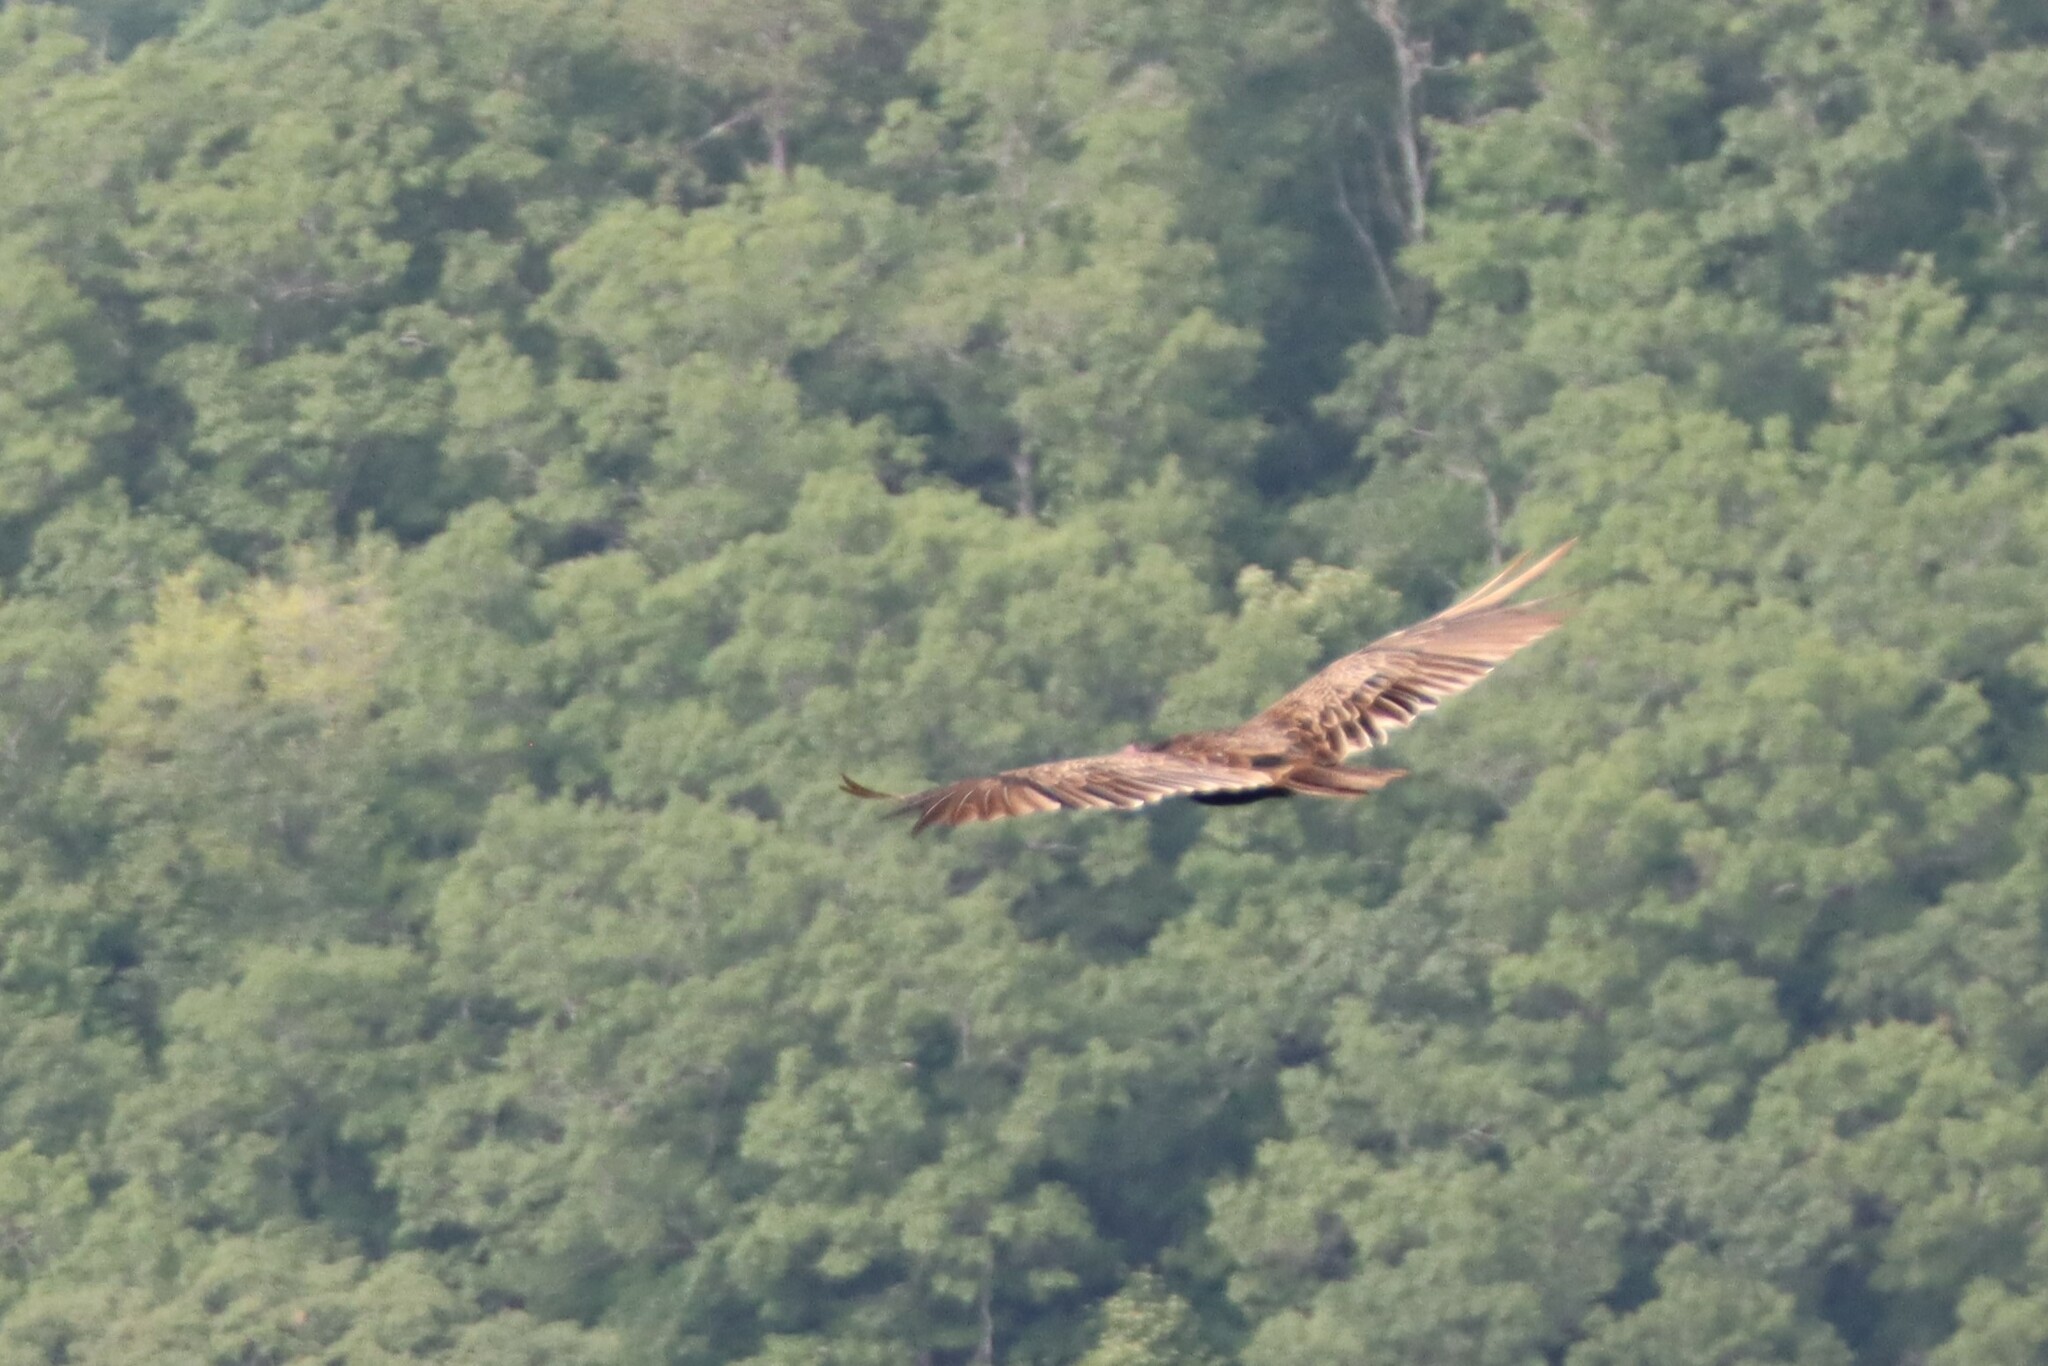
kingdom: Animalia
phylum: Chordata
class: Aves
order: Accipitriformes
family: Cathartidae
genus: Cathartes
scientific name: Cathartes aura
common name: Turkey vulture
